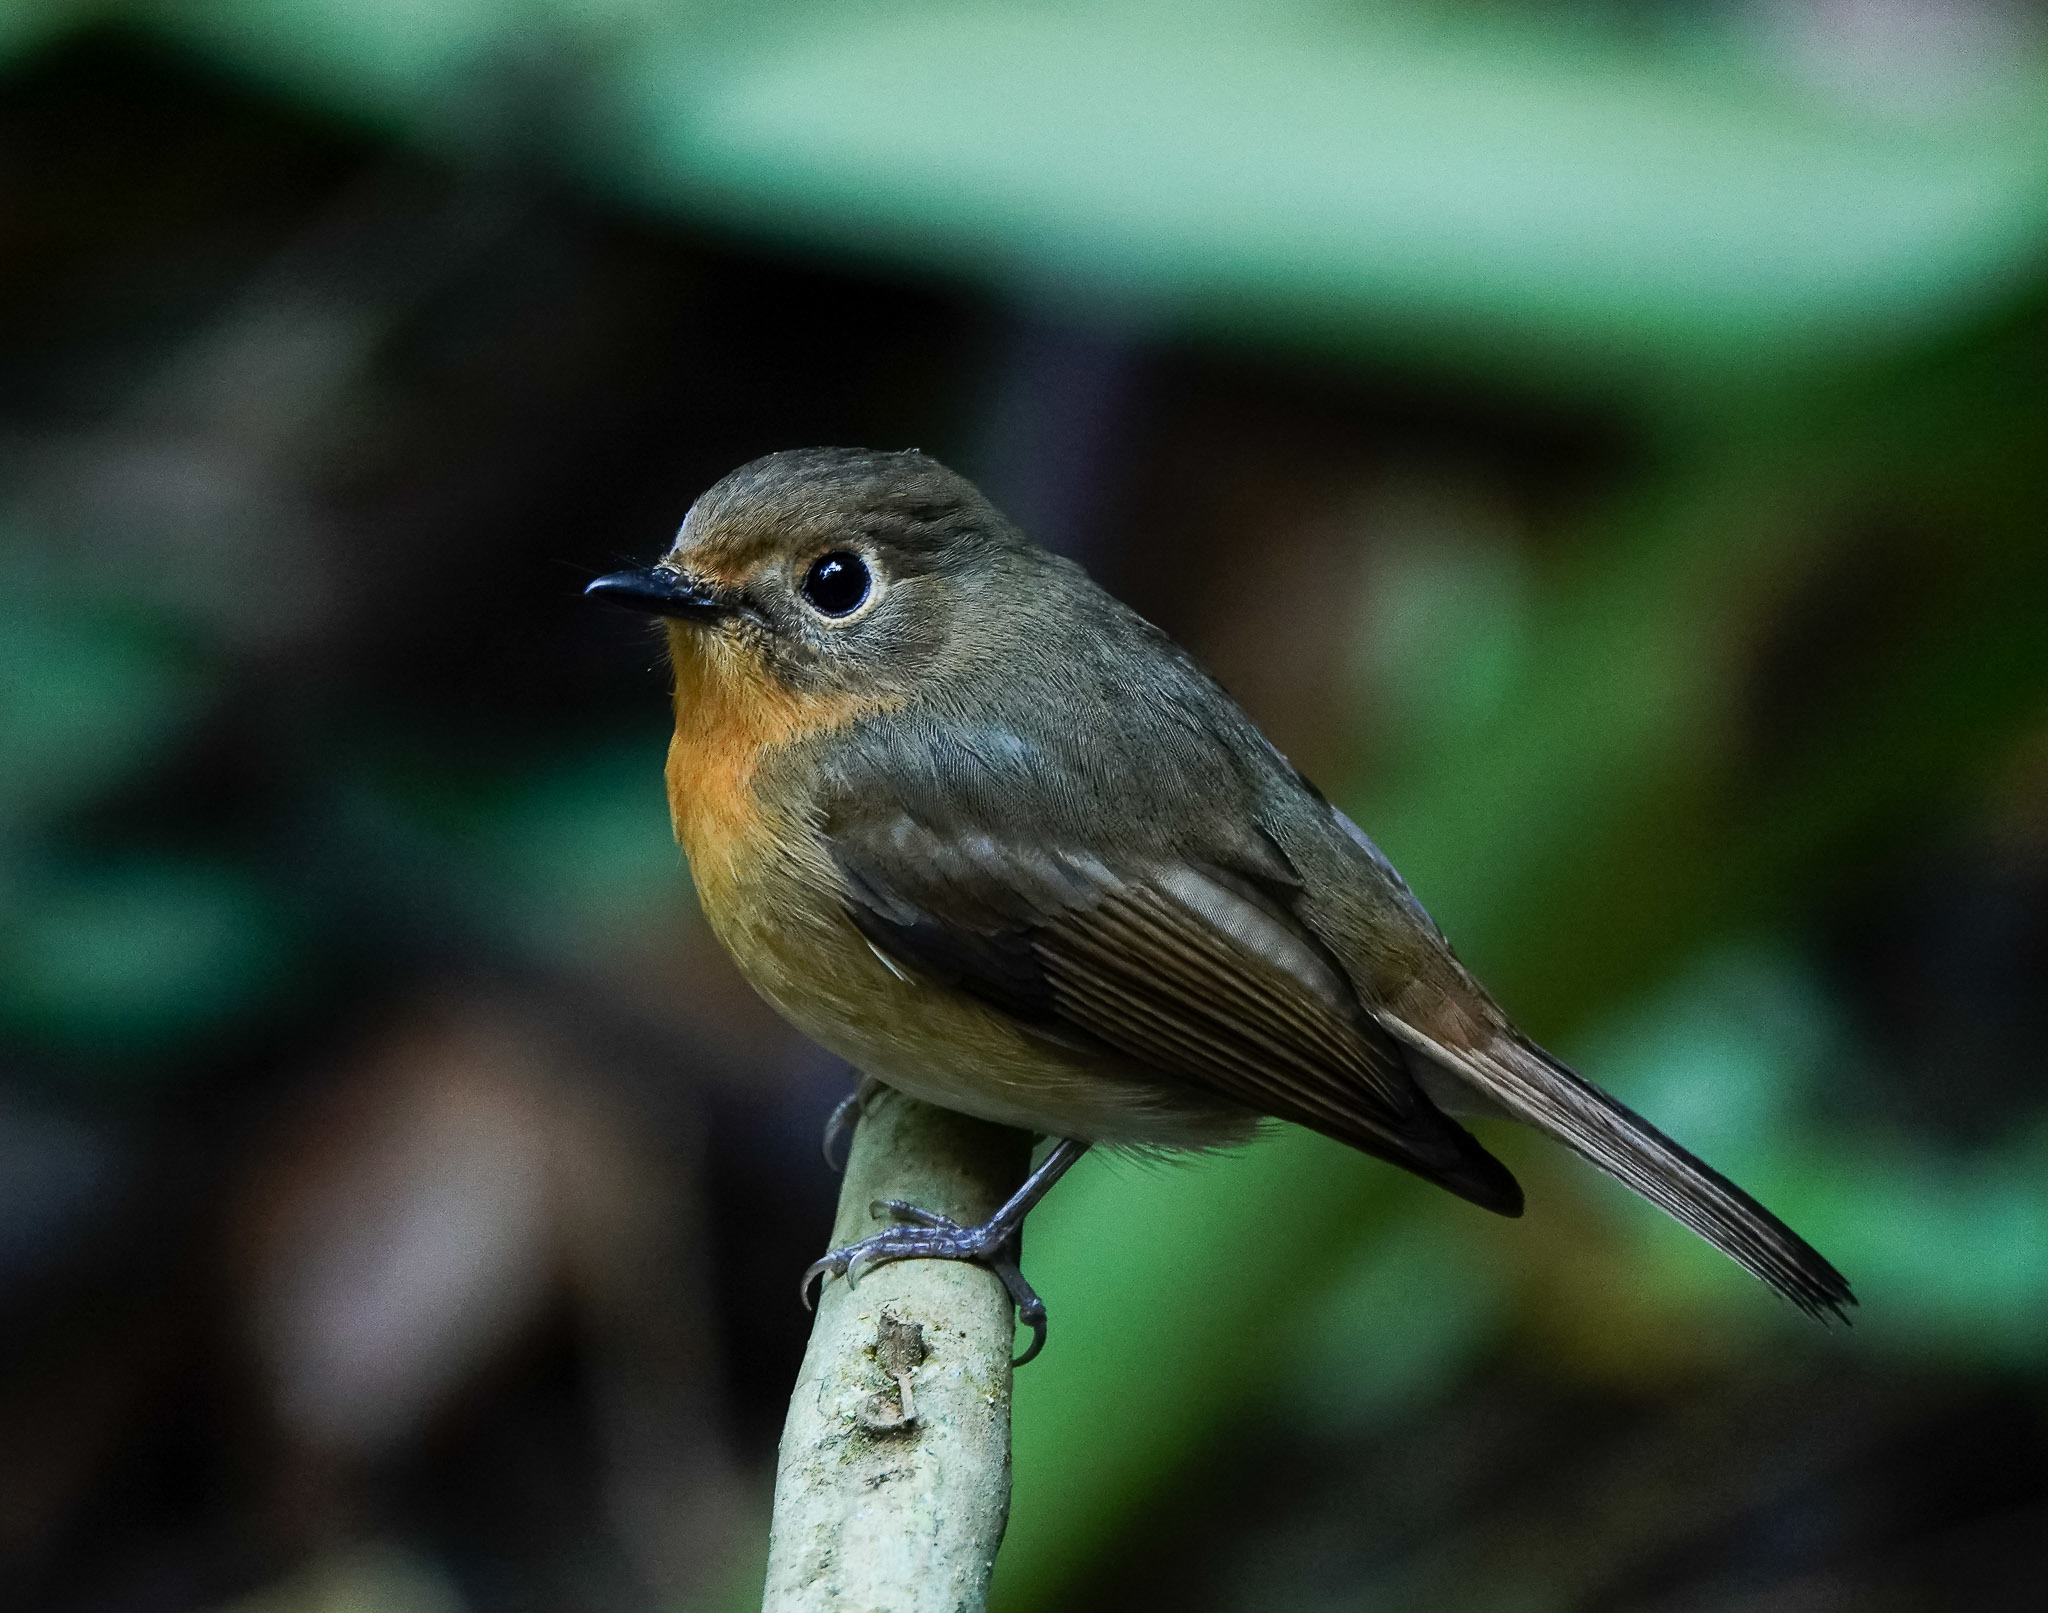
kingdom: Animalia
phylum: Chordata
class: Aves
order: Passeriformes
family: Muscicapidae
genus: Cyornis
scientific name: Cyornis whitei
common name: Hill blue flycatcher
